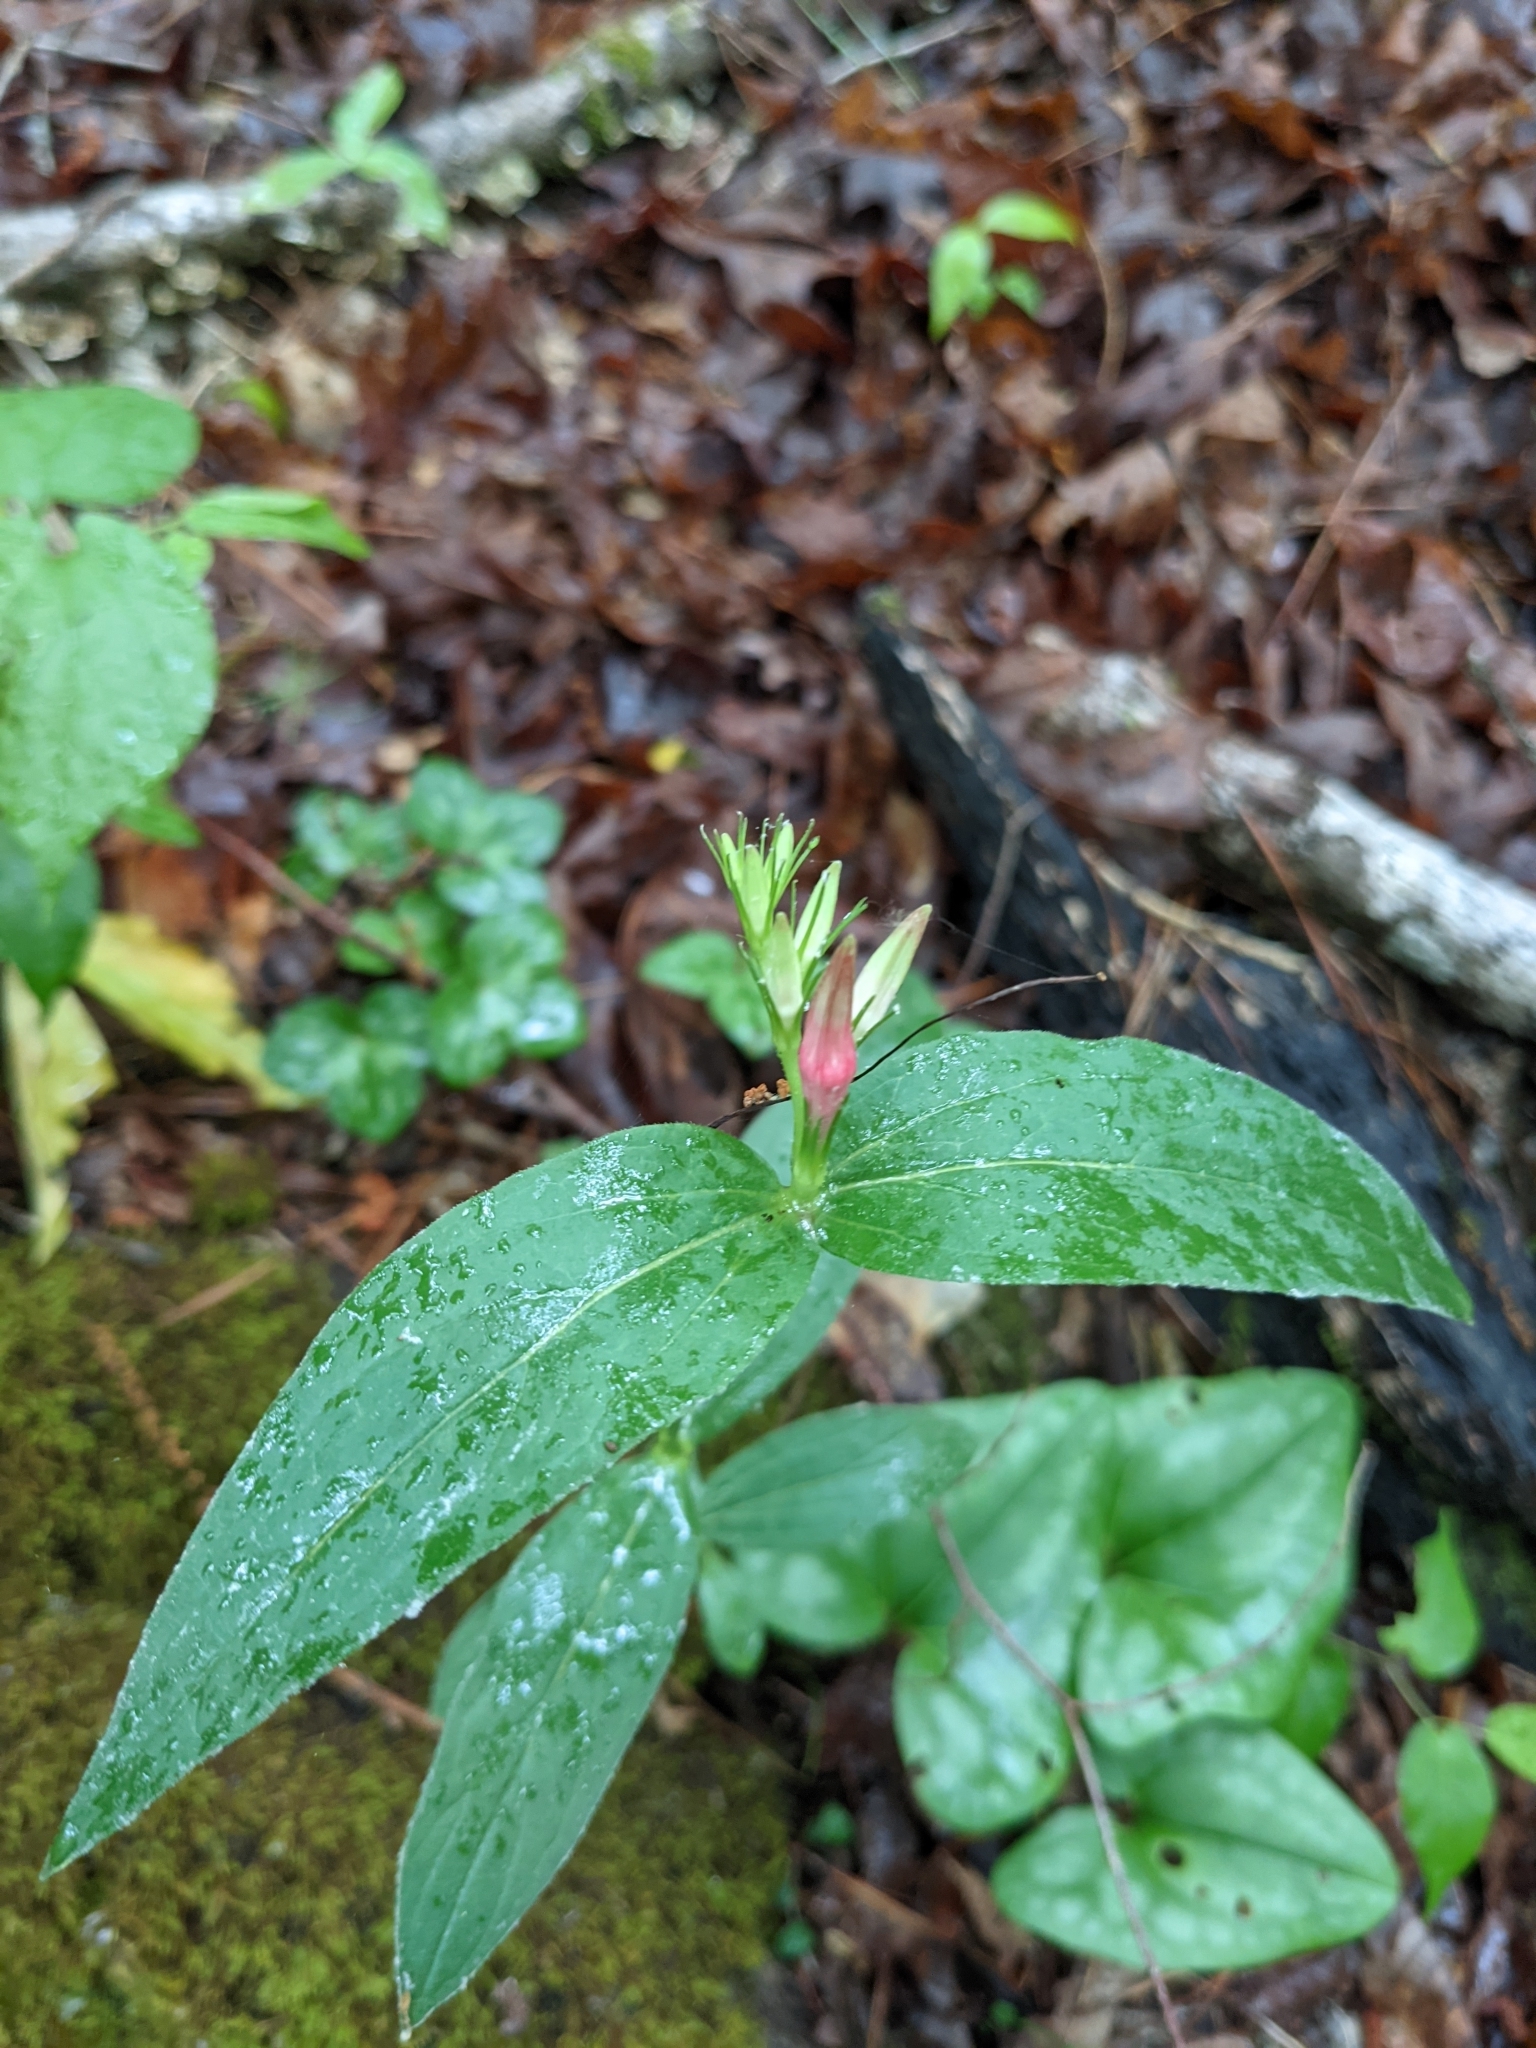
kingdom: Plantae
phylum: Tracheophyta
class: Magnoliopsida
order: Gentianales
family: Loganiaceae
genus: Spigelia
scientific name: Spigelia marilandica
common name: Indian-pink
